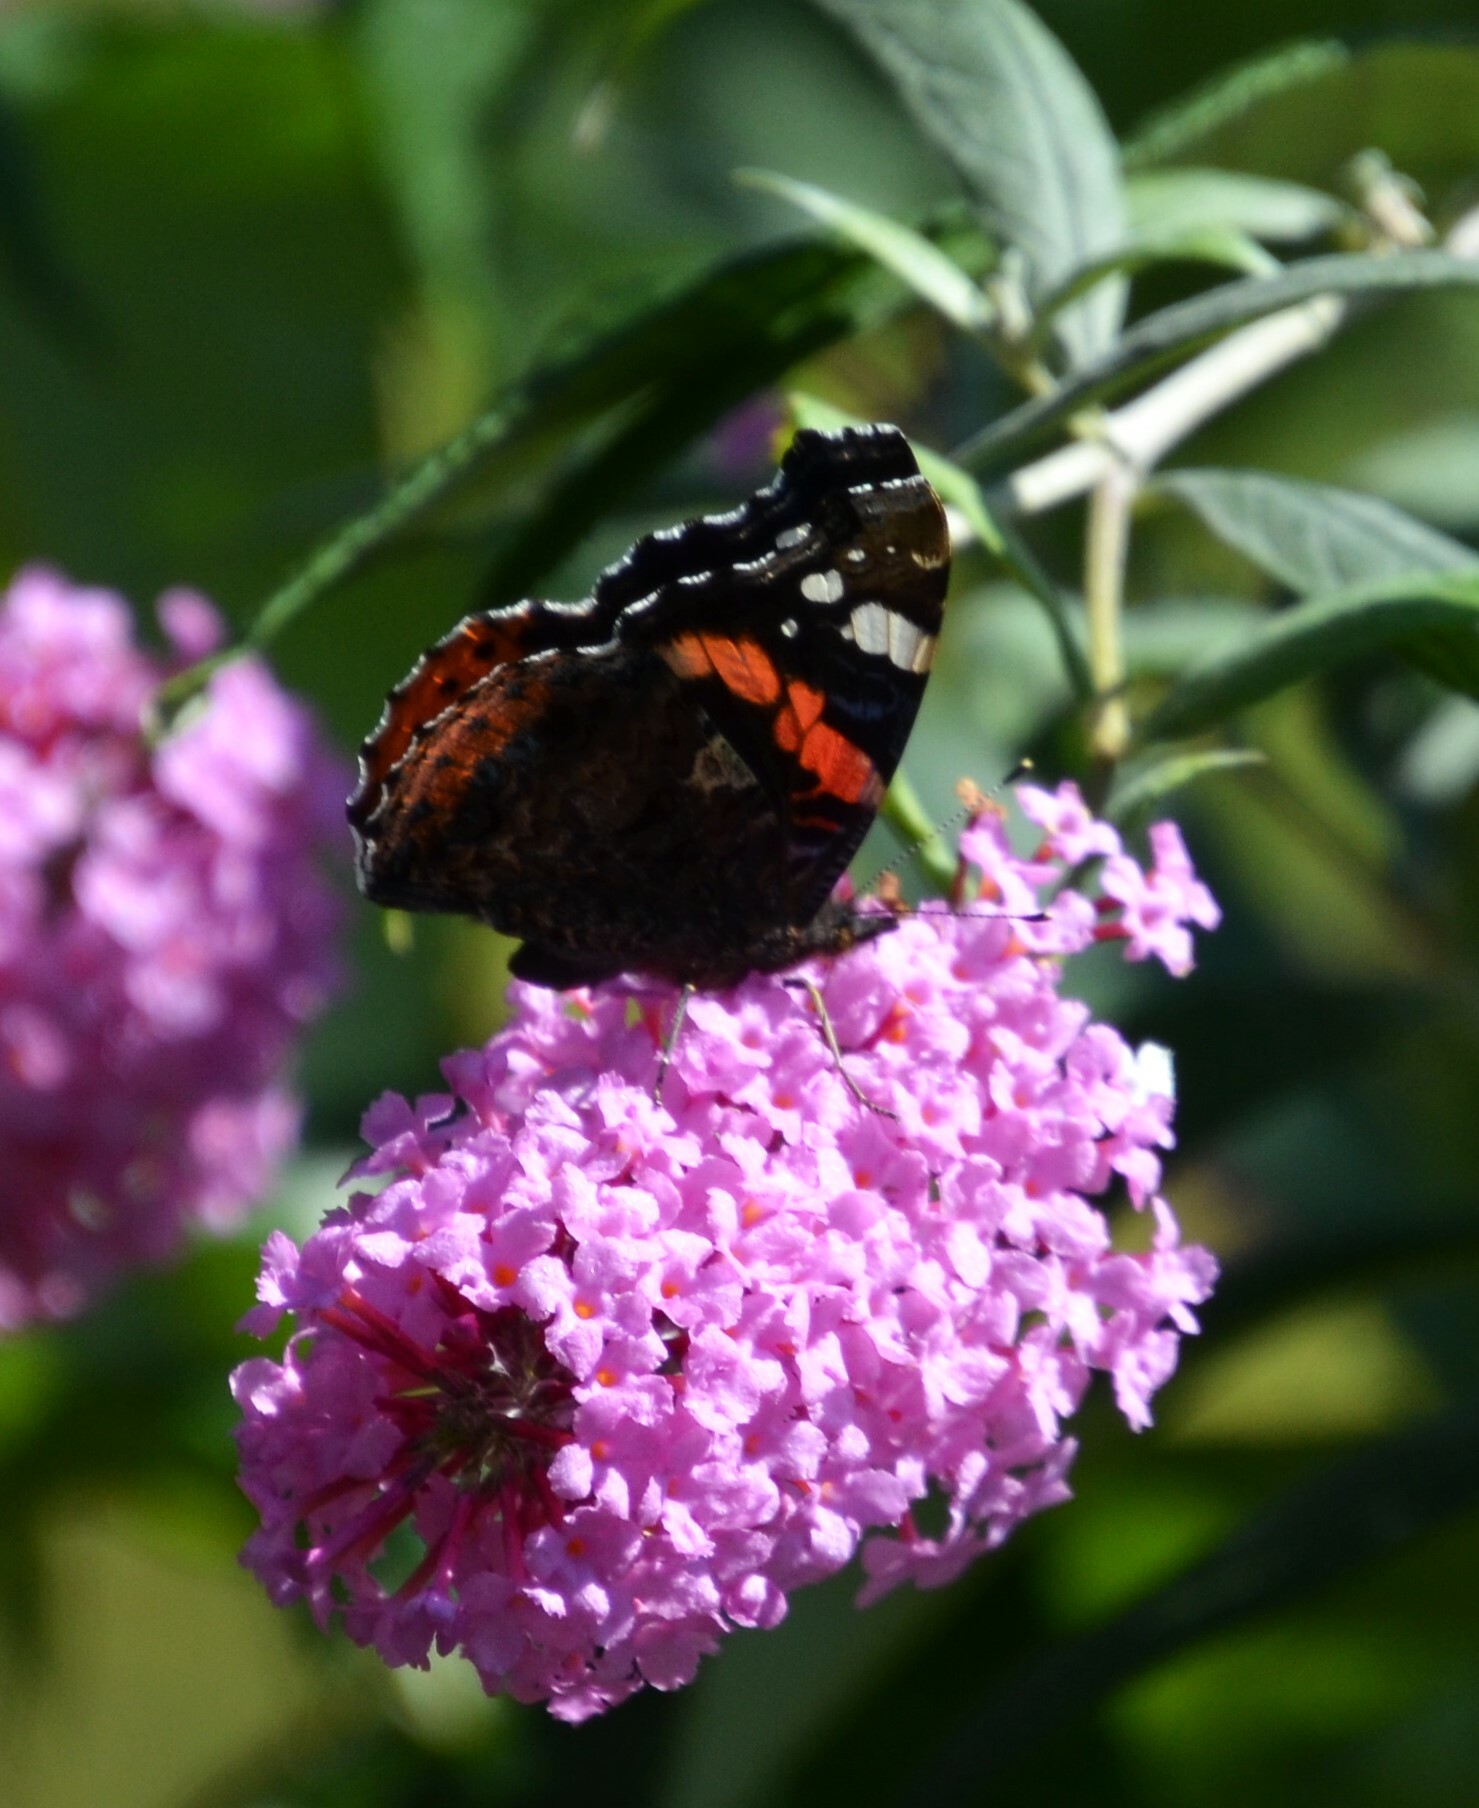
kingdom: Animalia
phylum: Arthropoda
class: Insecta
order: Lepidoptera
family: Nymphalidae
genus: Vanessa
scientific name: Vanessa atalanta
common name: Red admiral
